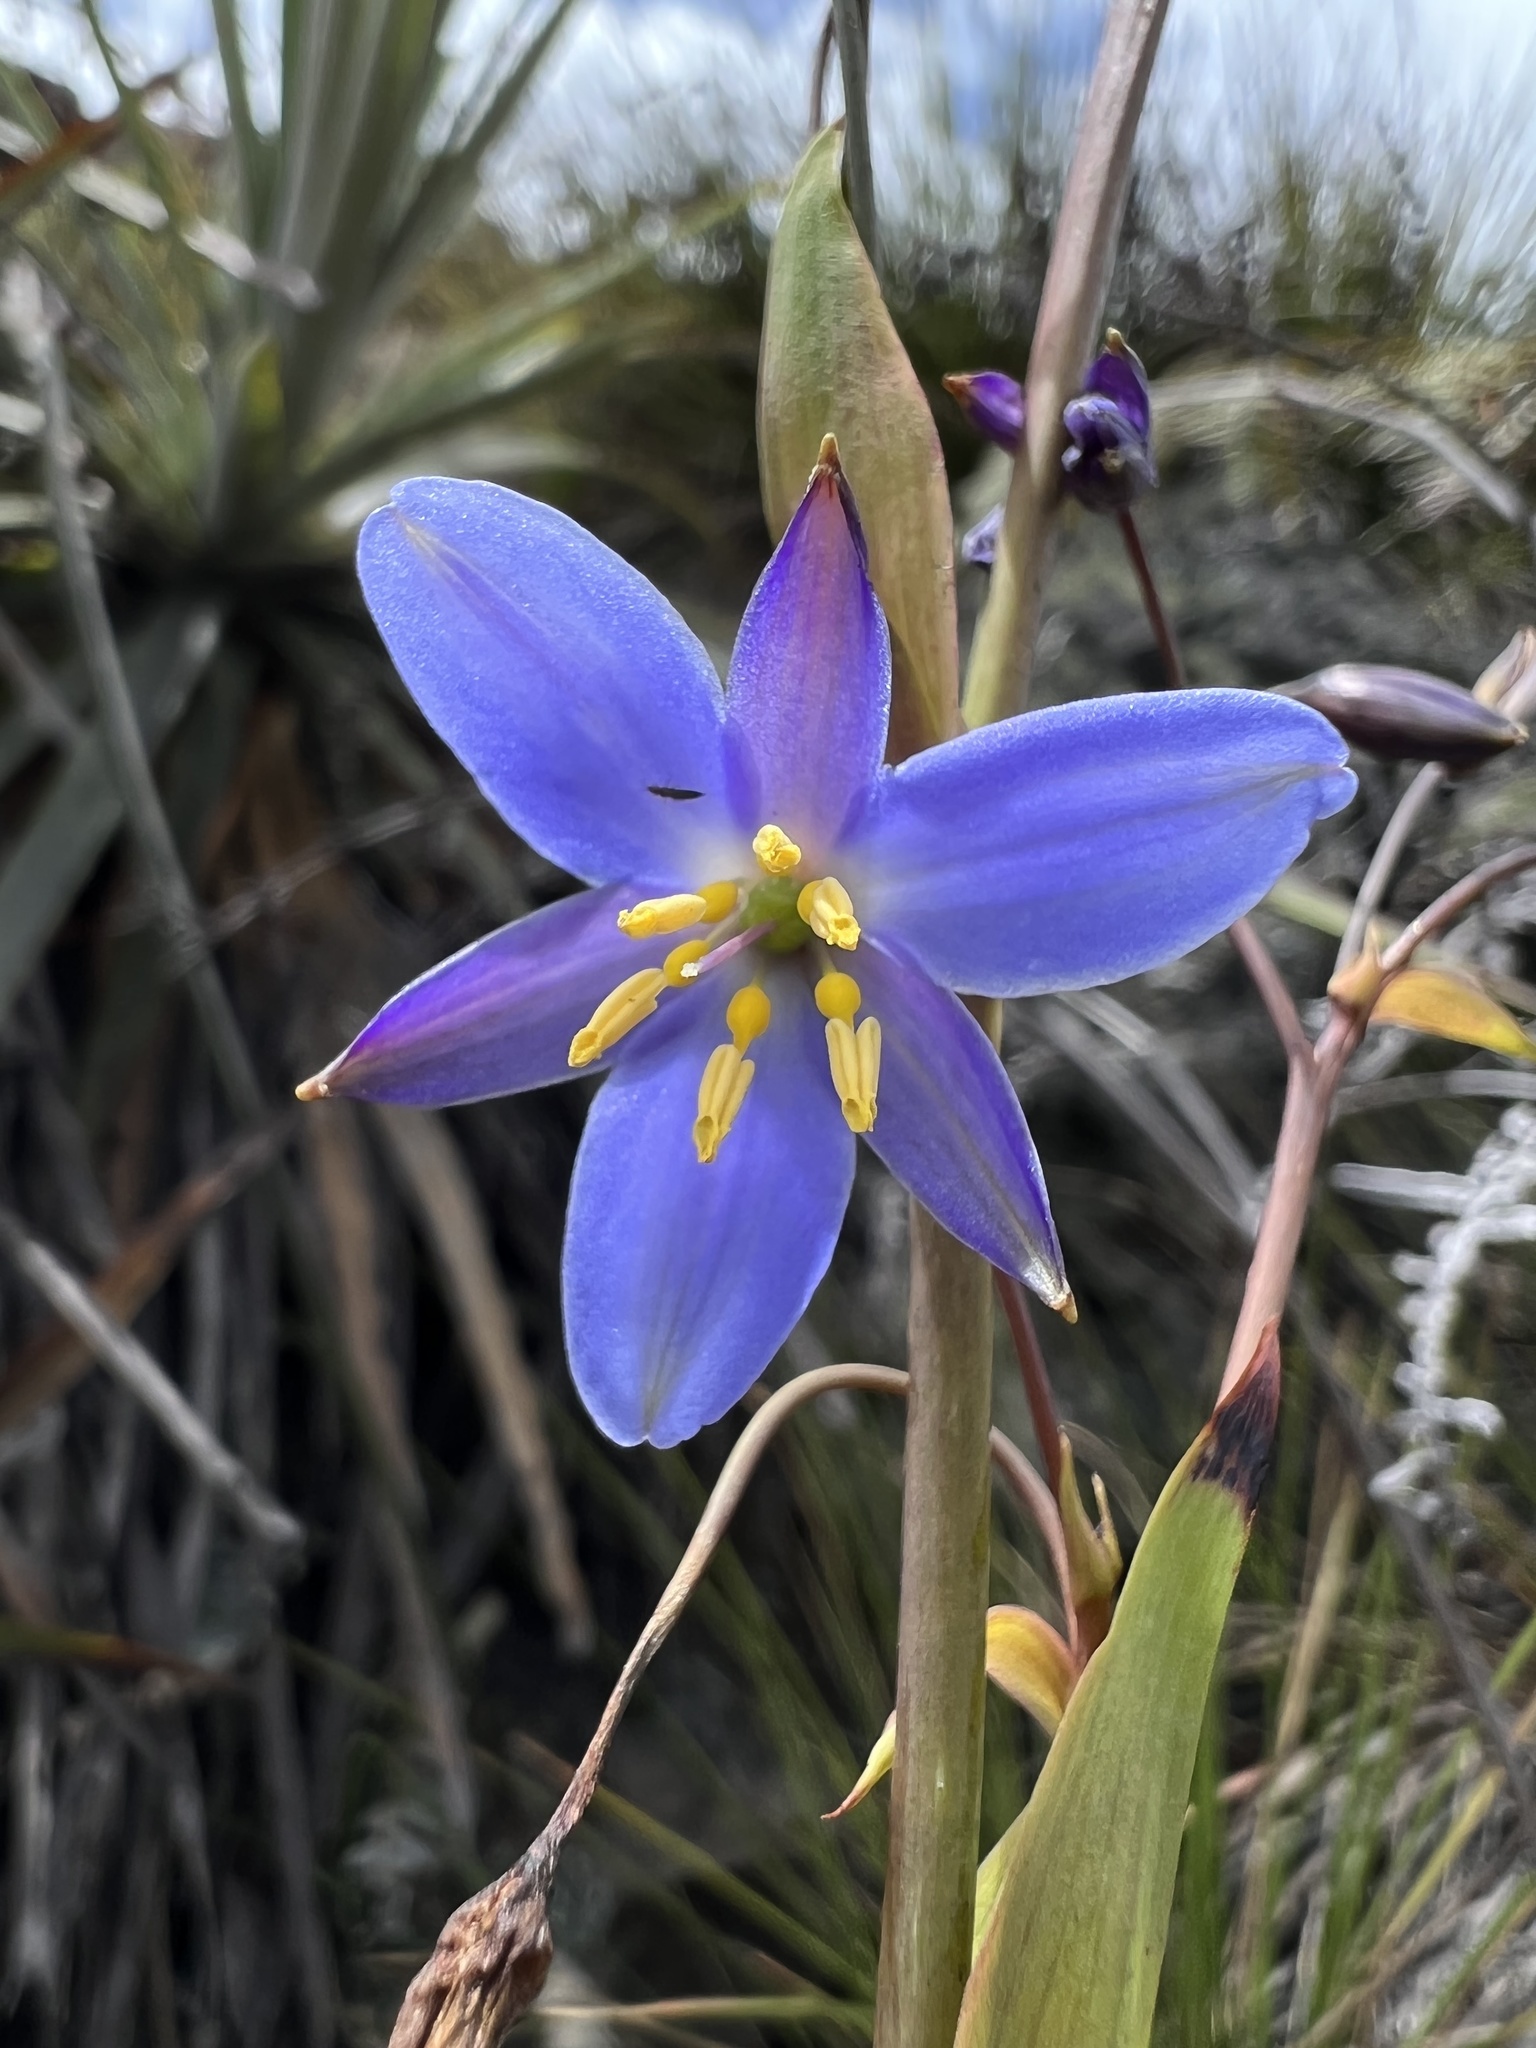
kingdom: Plantae
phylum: Tracheophyta
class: Liliopsida
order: Asparagales
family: Asphodelaceae
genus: Excremis
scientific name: Excremis coarctata
